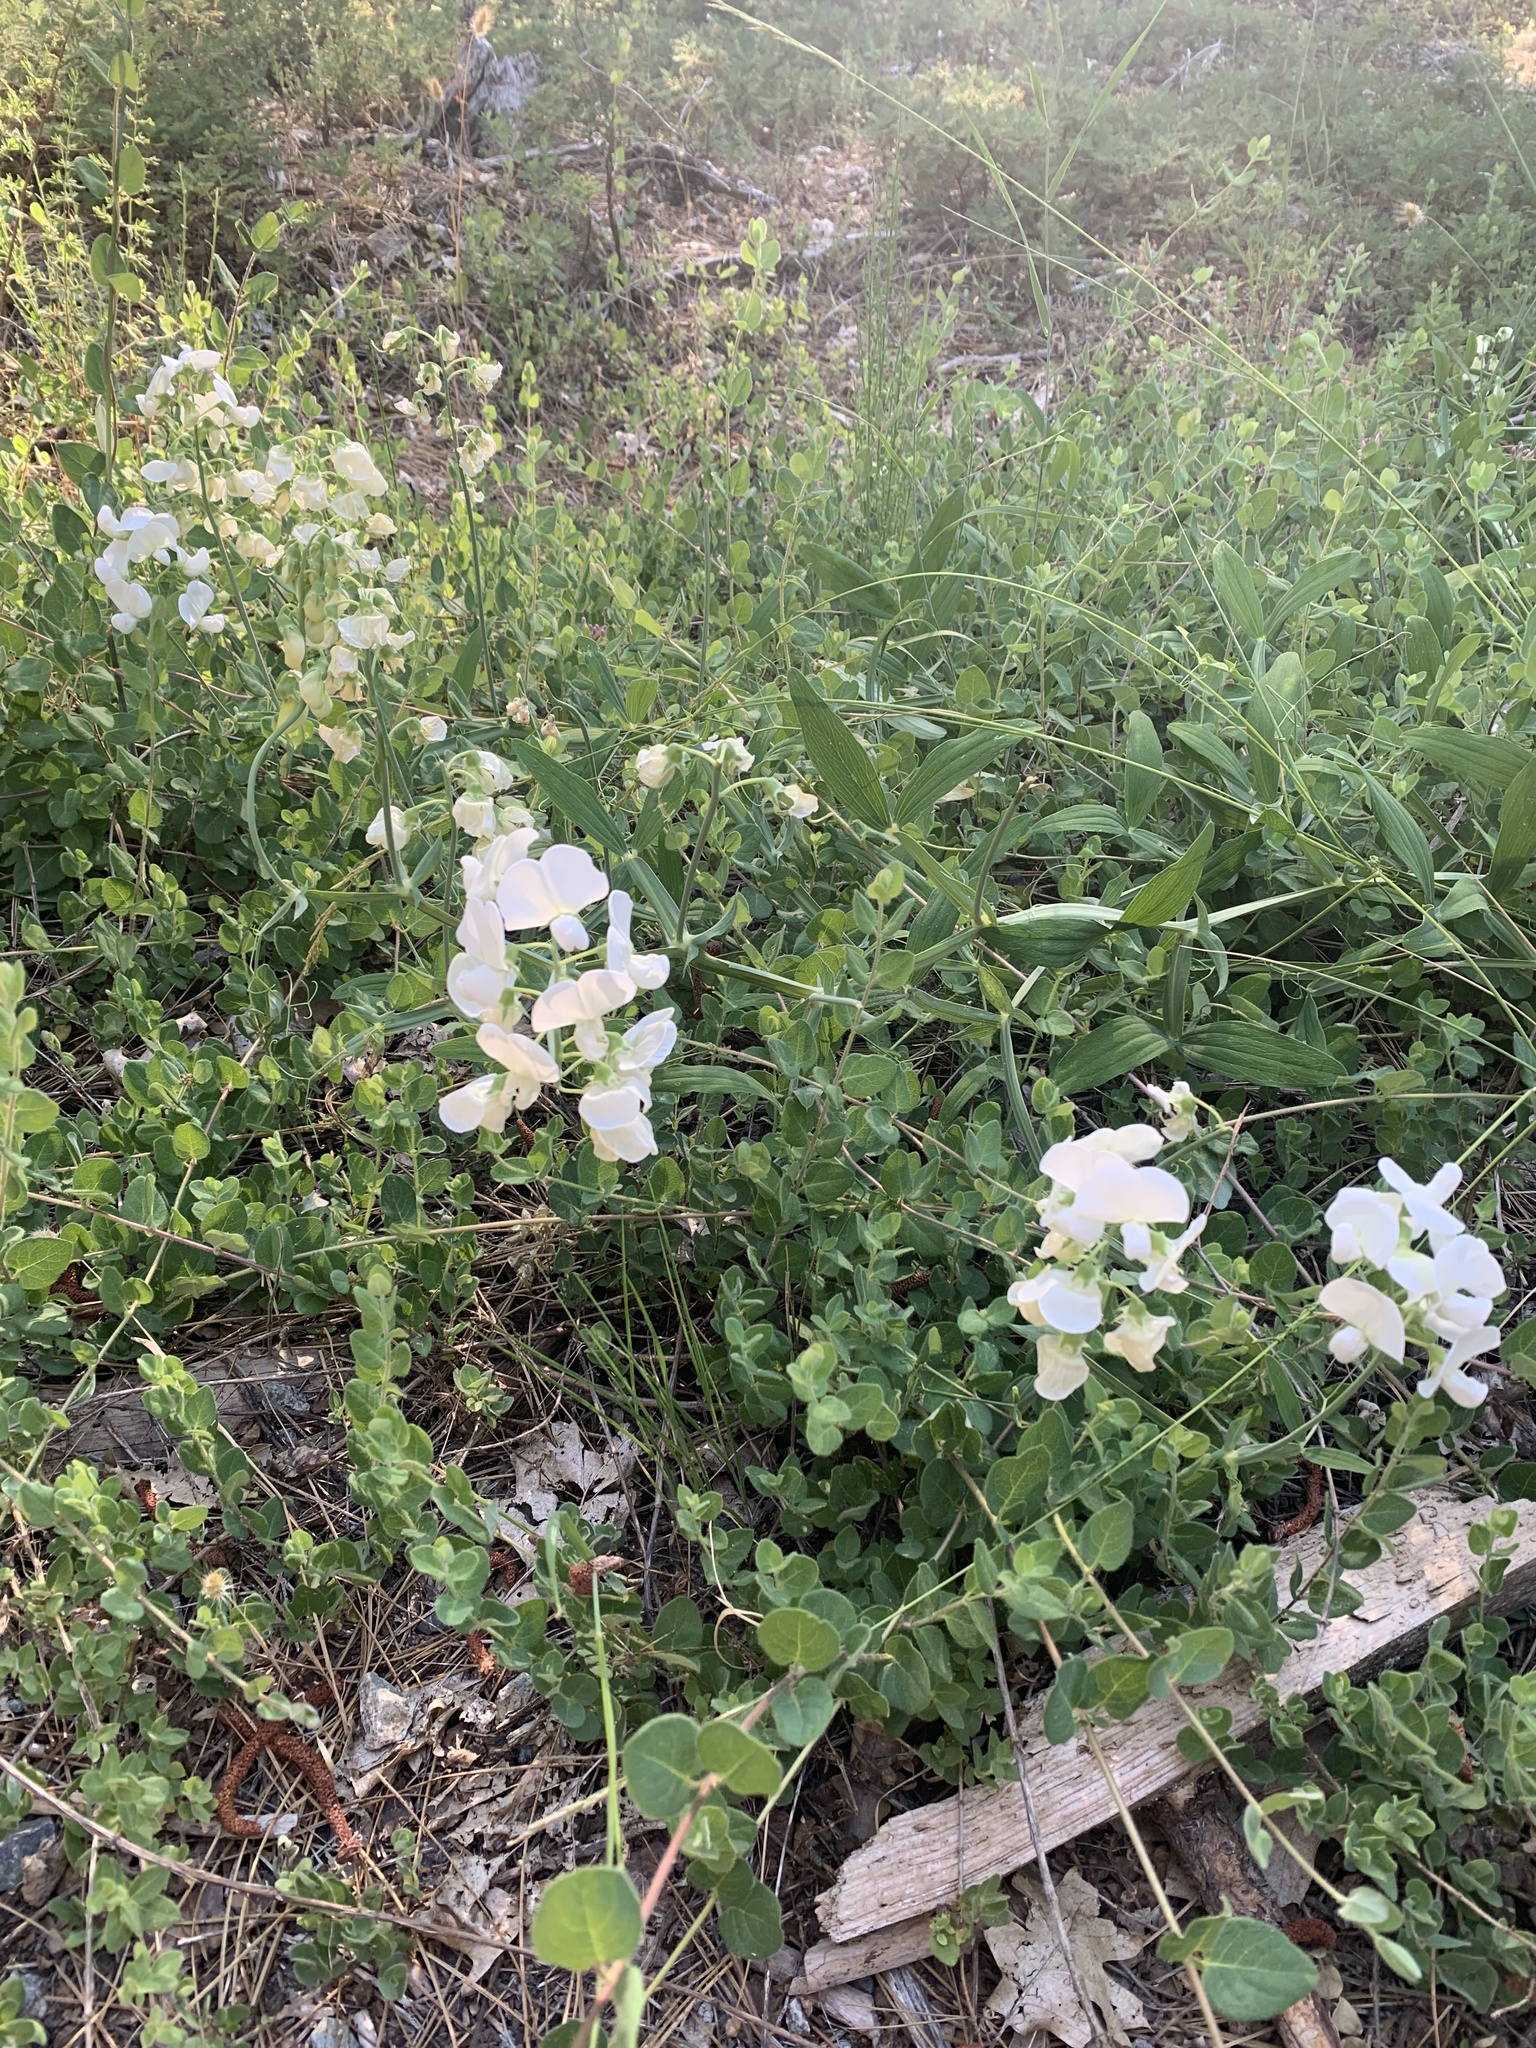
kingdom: Plantae
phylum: Tracheophyta
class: Magnoliopsida
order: Fabales
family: Fabaceae
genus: Lathyrus
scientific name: Lathyrus latifolius
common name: Perennial pea
